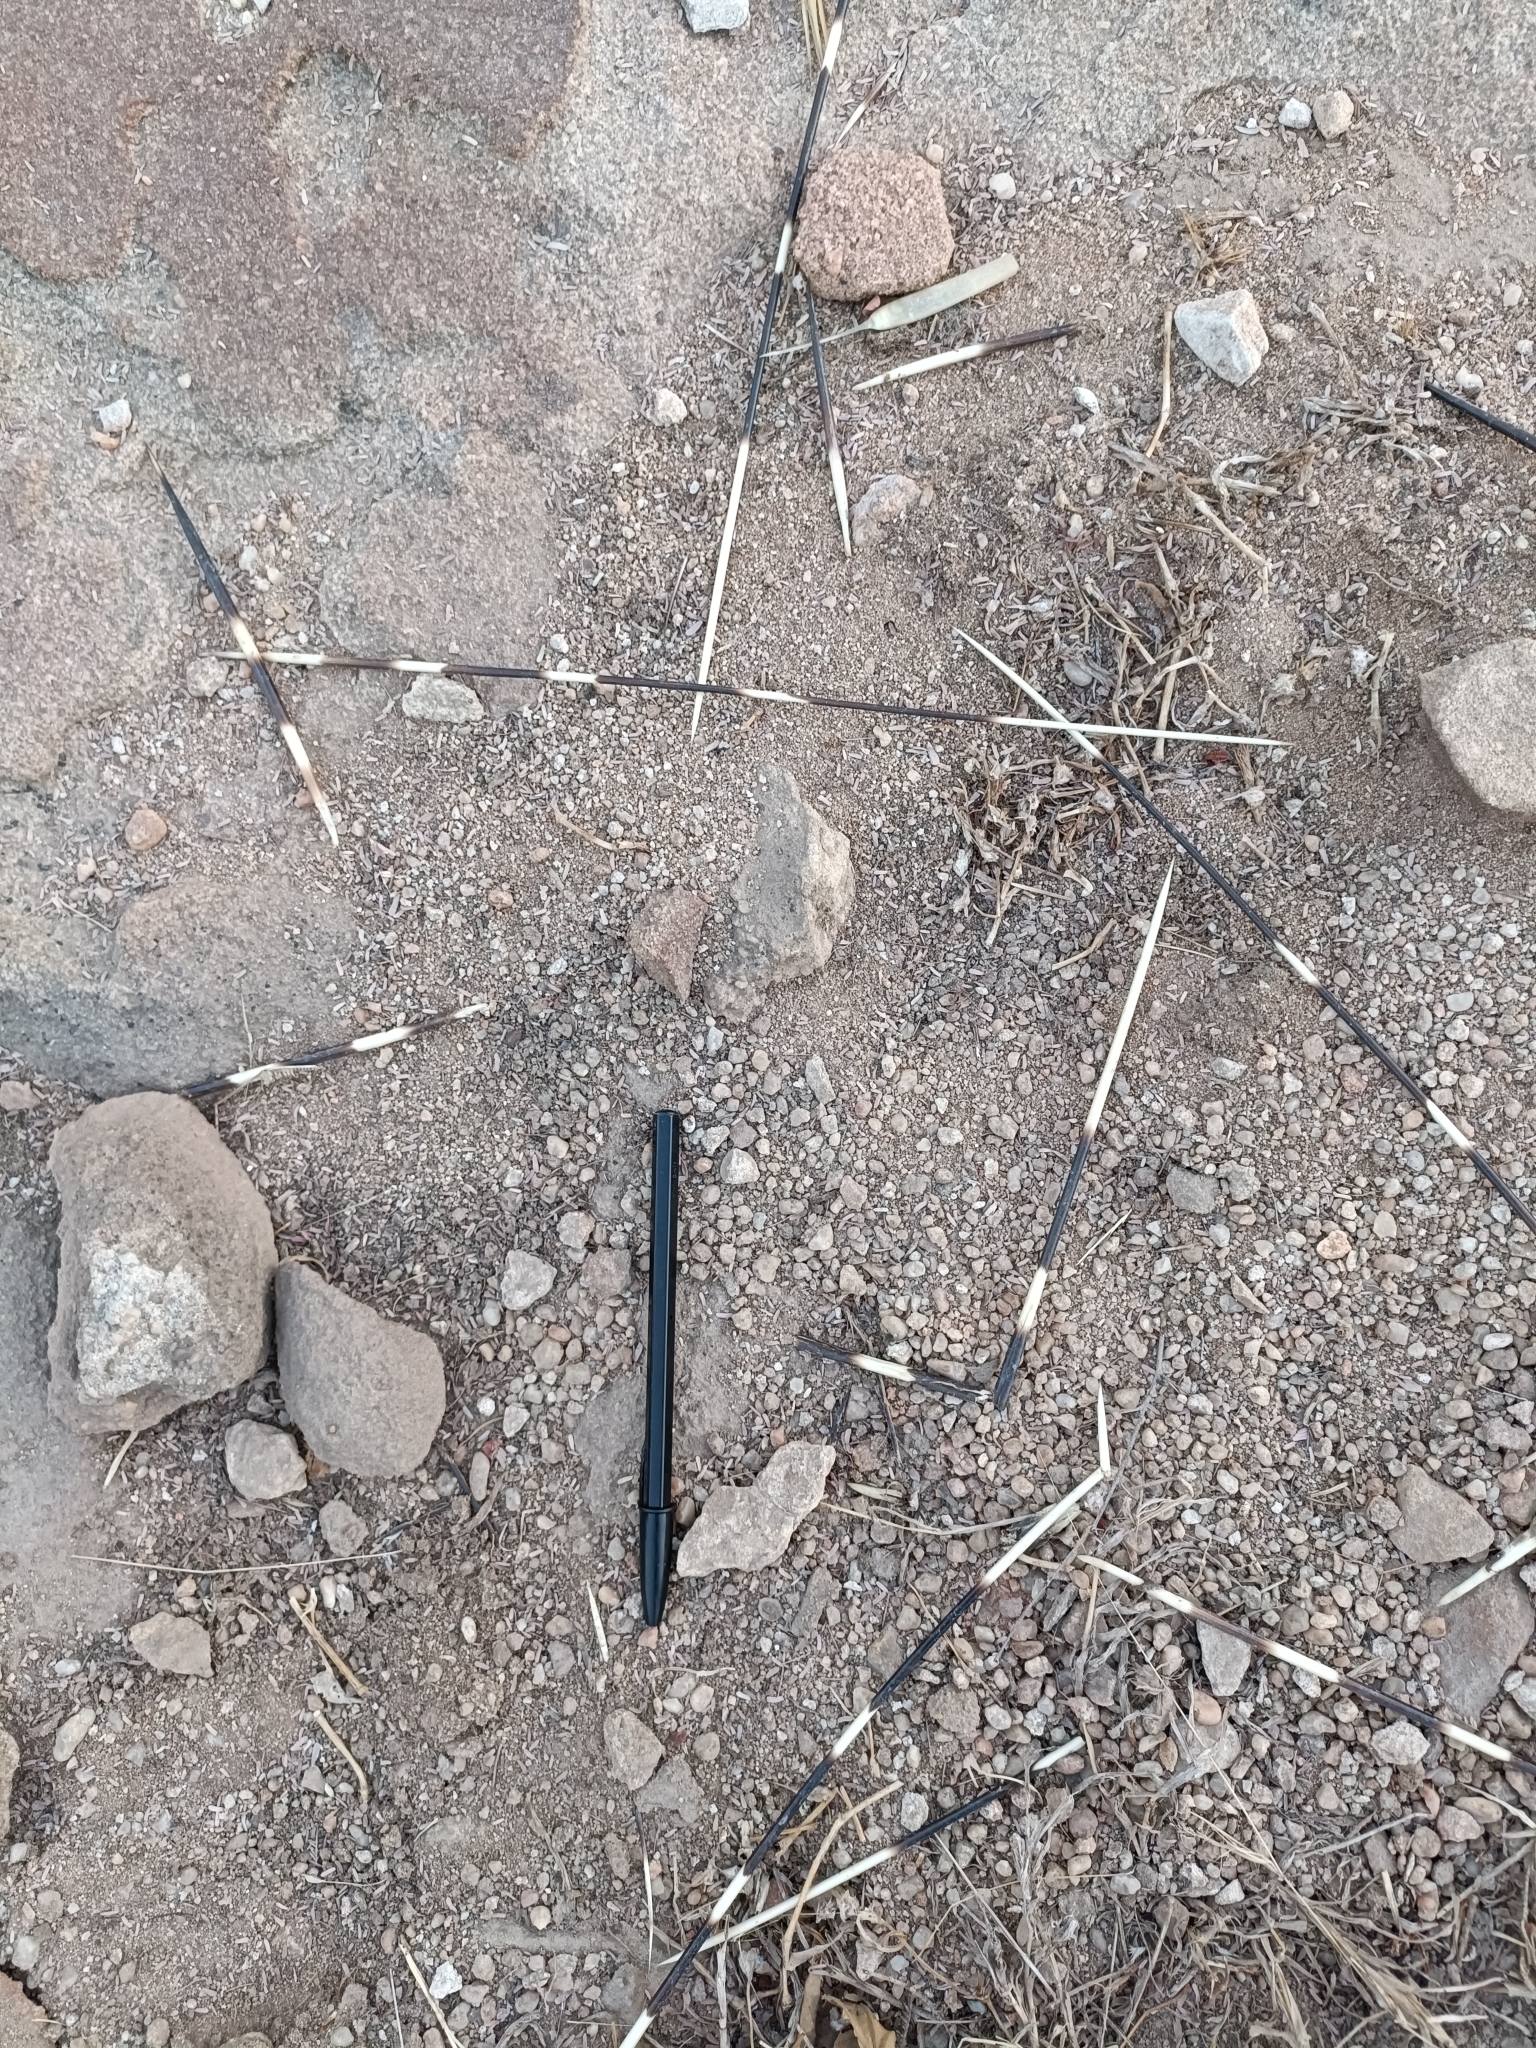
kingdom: Animalia
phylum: Chordata
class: Mammalia
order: Rodentia
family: Hystricidae
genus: Hystrix
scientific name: Hystrix indica
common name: Indian crested porcupine
